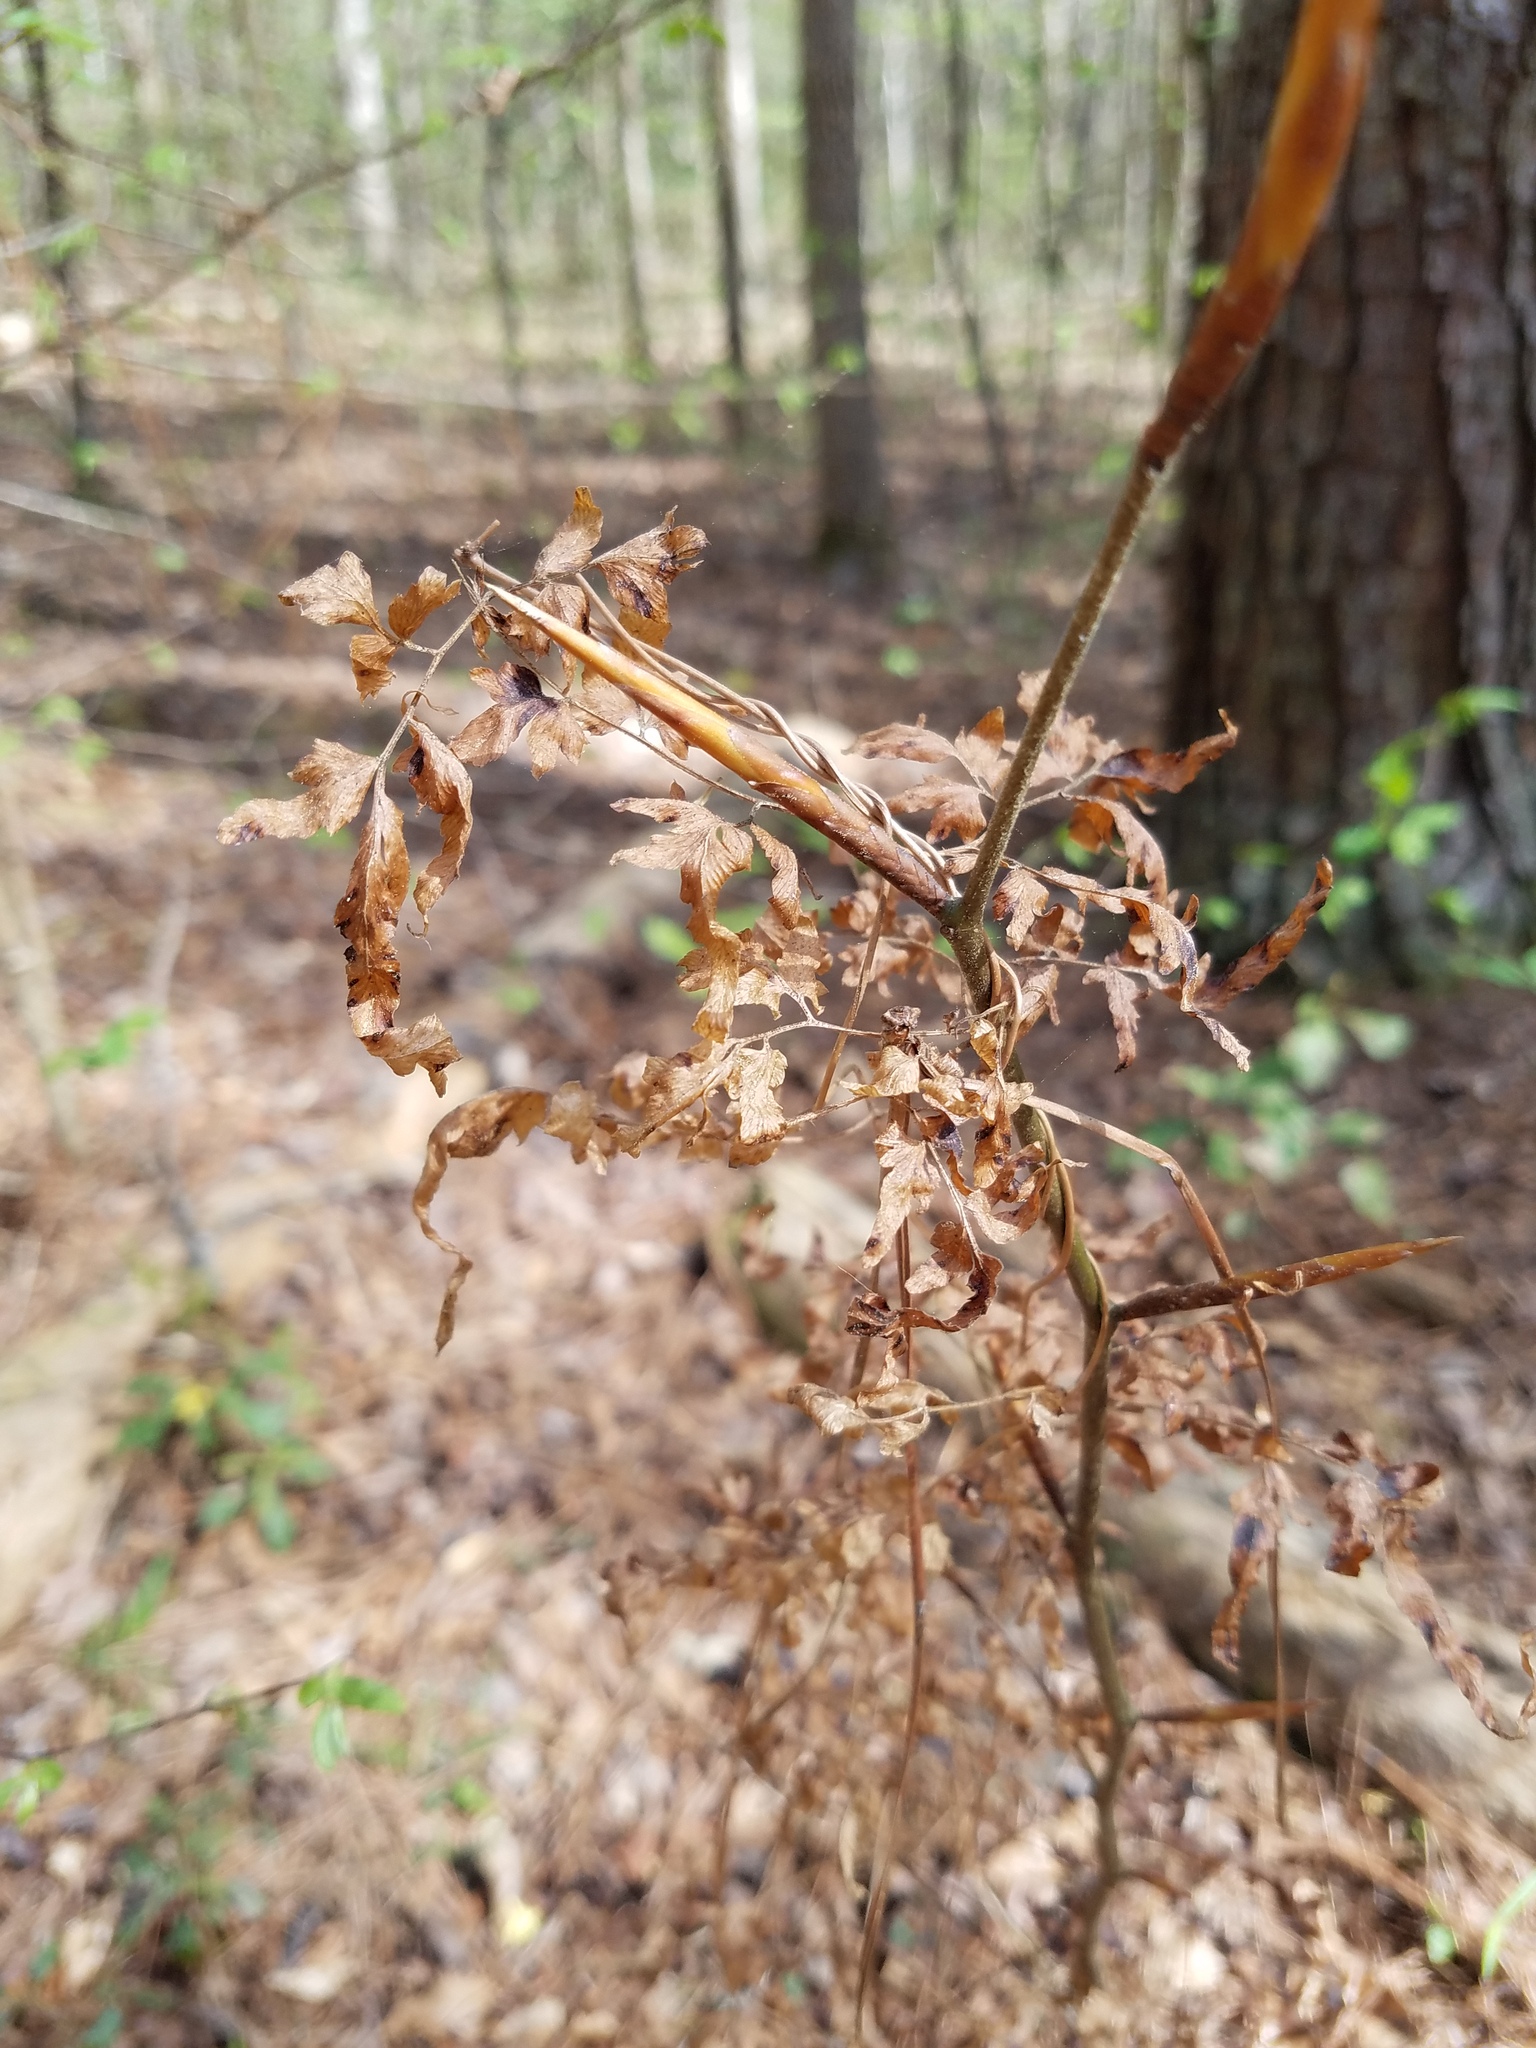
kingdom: Plantae
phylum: Tracheophyta
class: Polypodiopsida
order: Schizaeales
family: Lygodiaceae
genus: Lygodium
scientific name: Lygodium japonicum
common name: Japanese climbing fern
